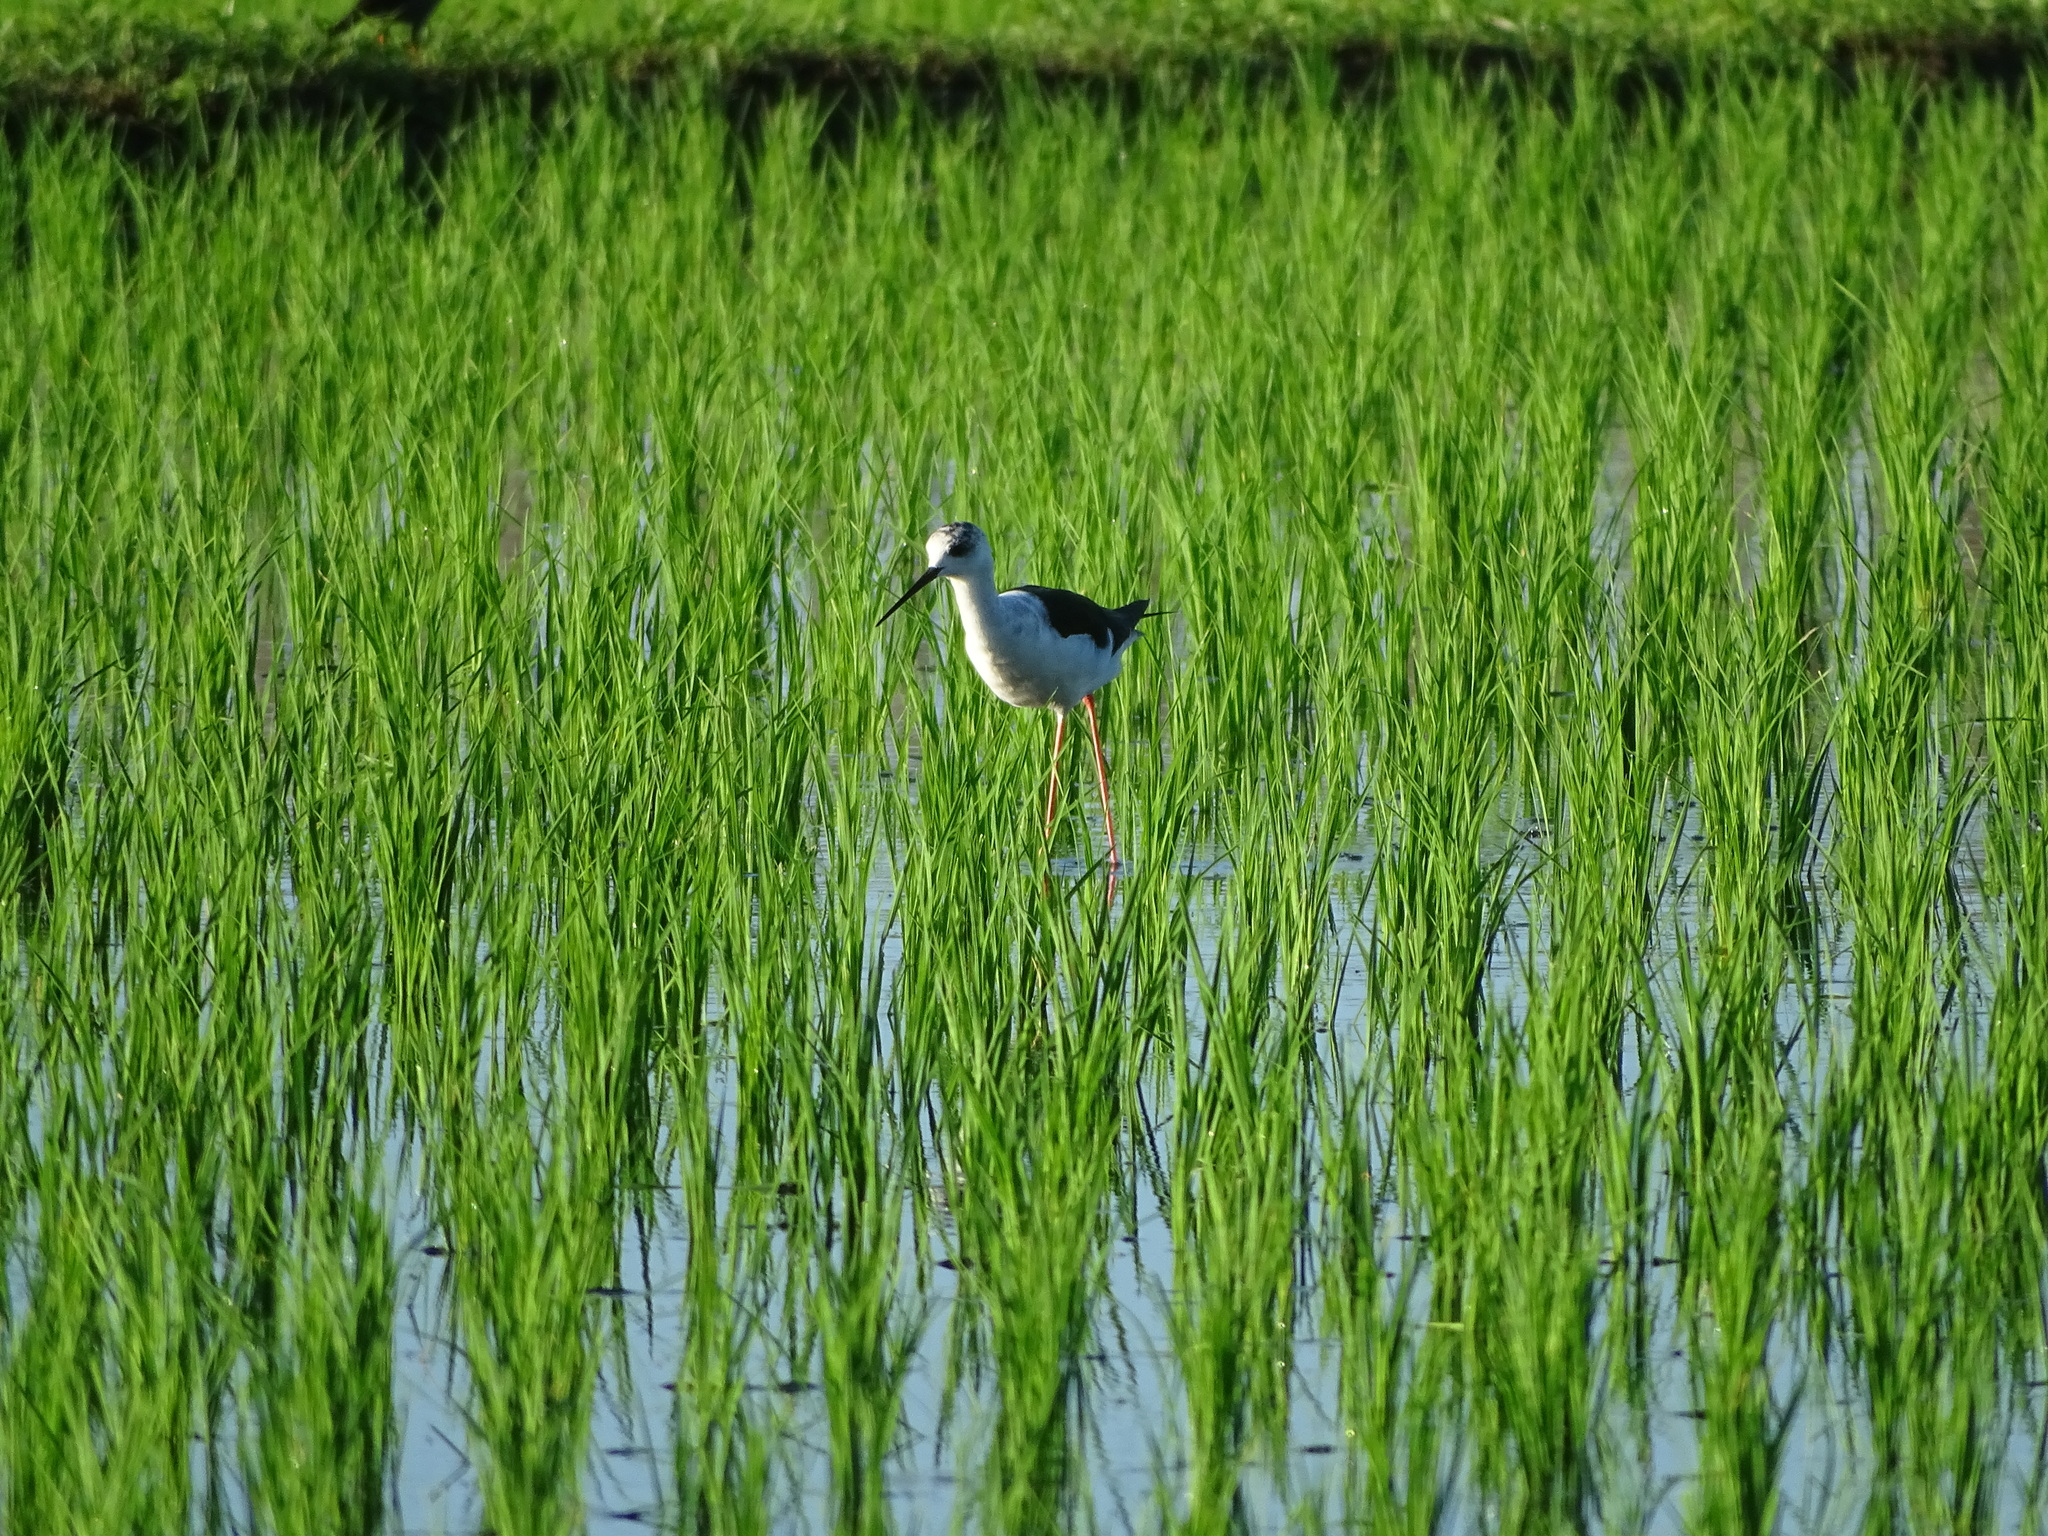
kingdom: Animalia
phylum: Chordata
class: Aves
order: Charadriiformes
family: Recurvirostridae
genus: Himantopus
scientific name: Himantopus himantopus
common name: Black-winged stilt
